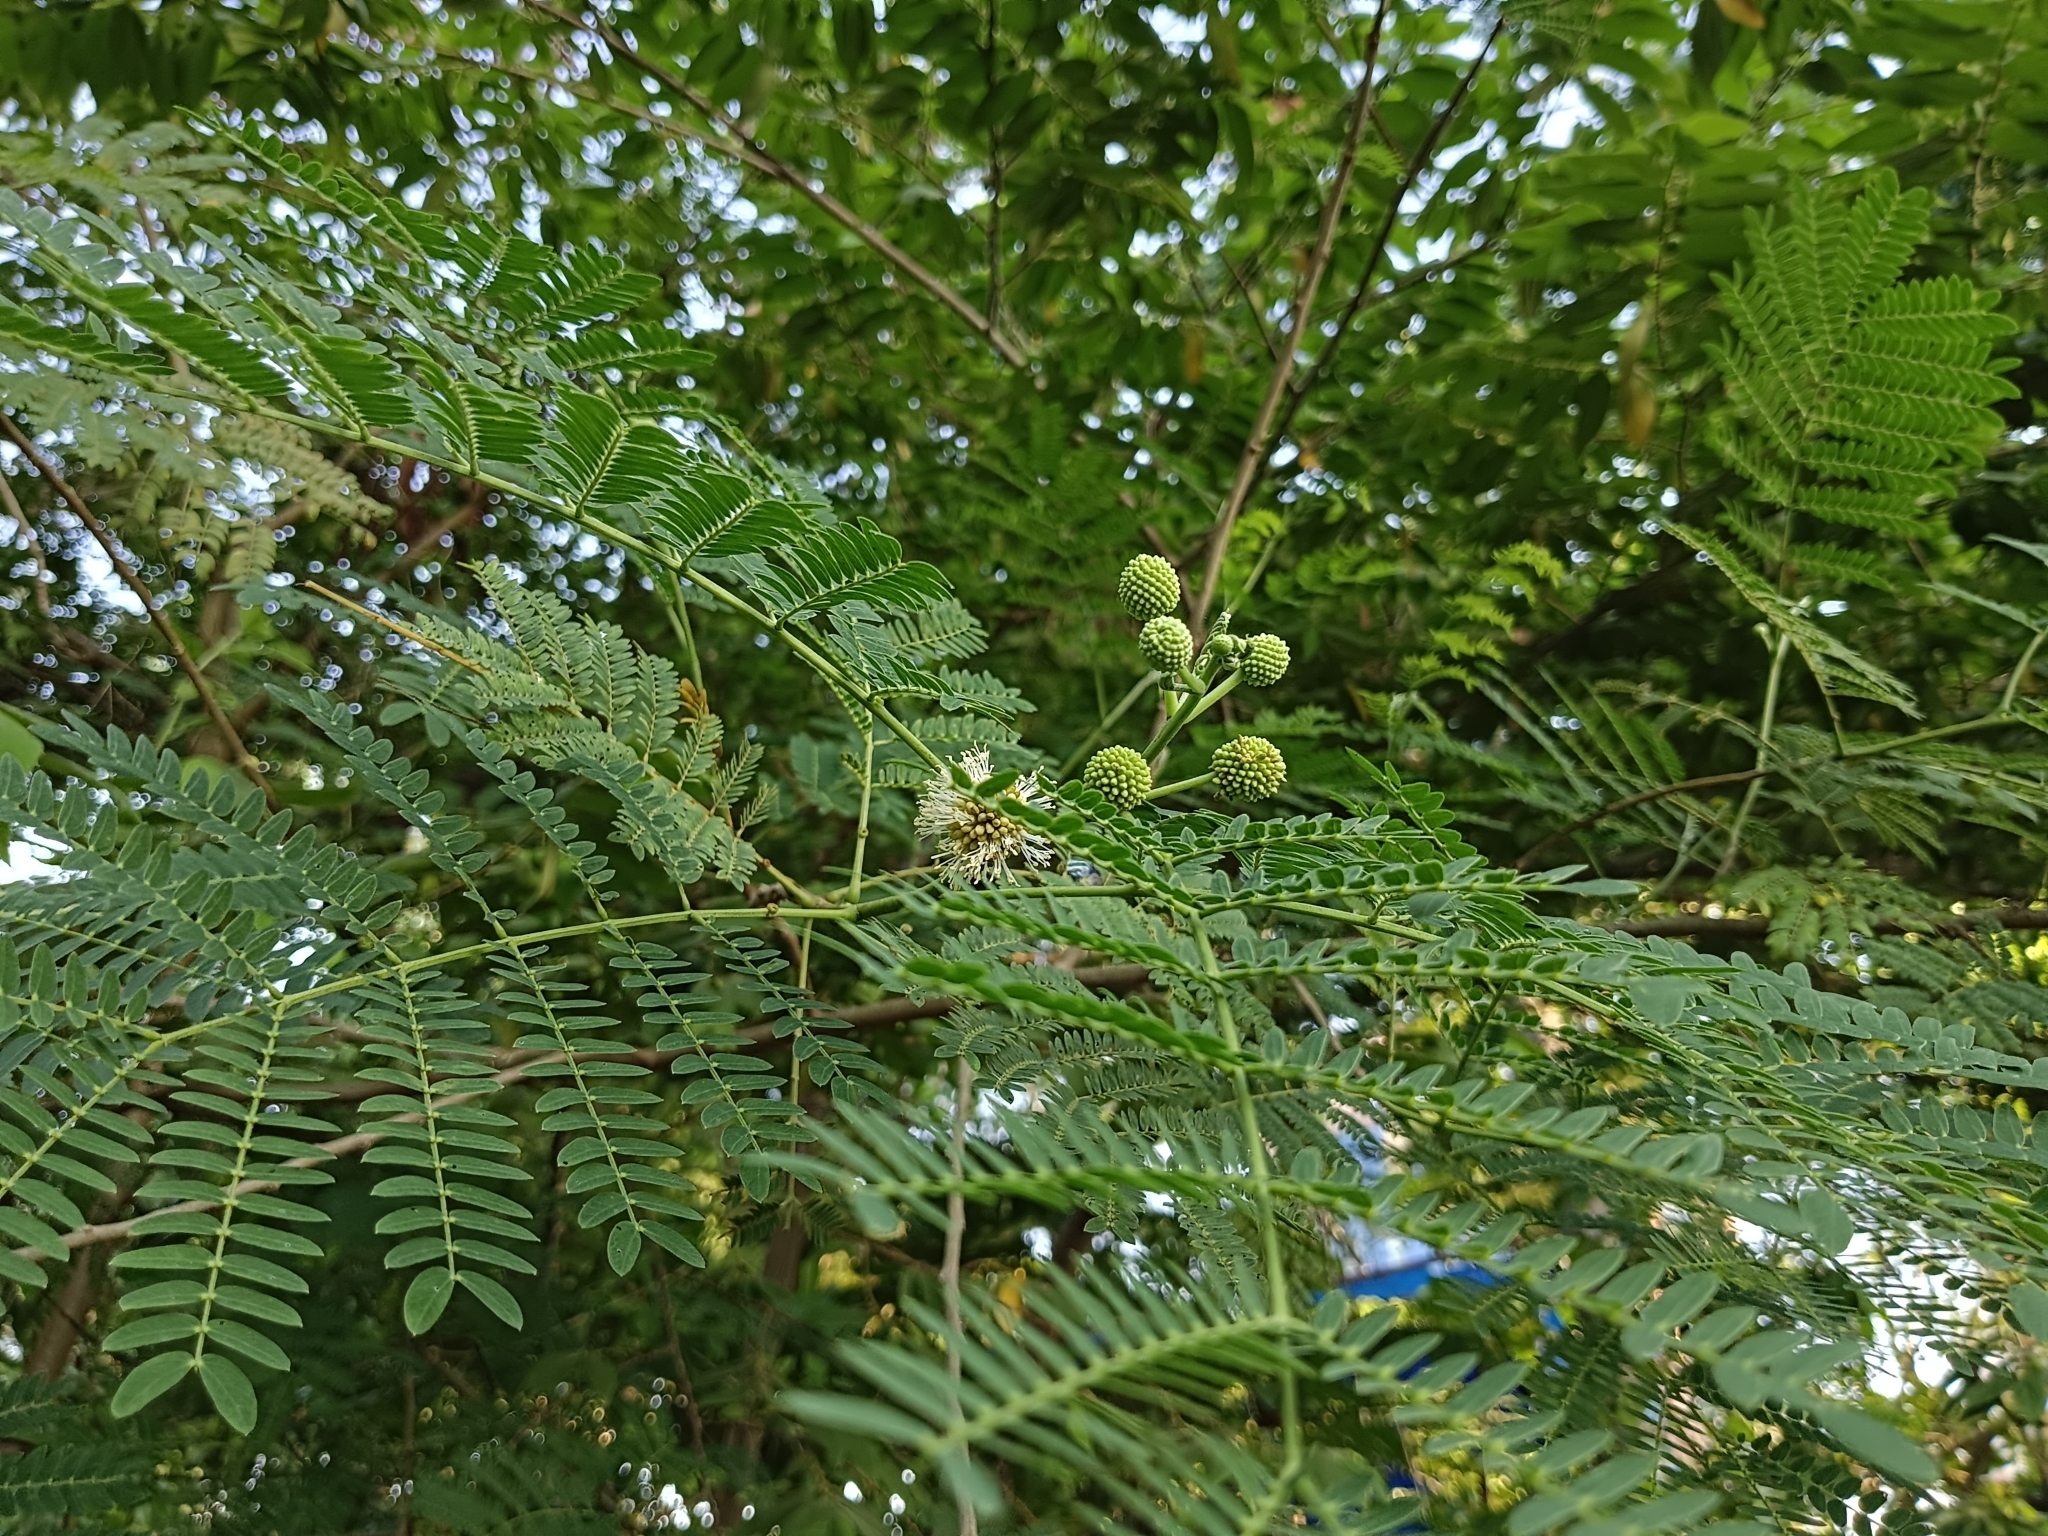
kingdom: Plantae
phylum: Tracheophyta
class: Magnoliopsida
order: Fabales
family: Fabaceae
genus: Leucaena
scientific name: Leucaena leucocephala
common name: White leadtree
